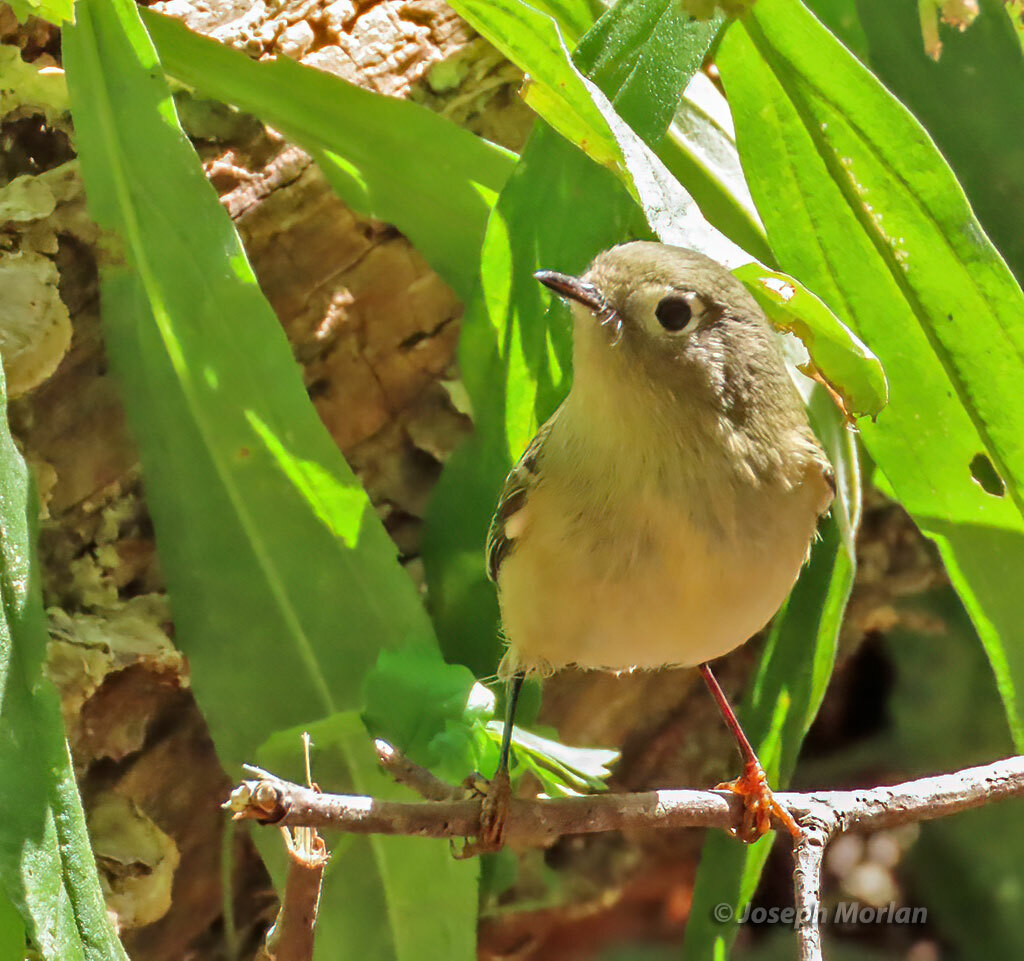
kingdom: Animalia
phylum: Chordata
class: Aves
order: Passeriformes
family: Regulidae
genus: Regulus
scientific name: Regulus calendula
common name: Ruby-crowned kinglet
